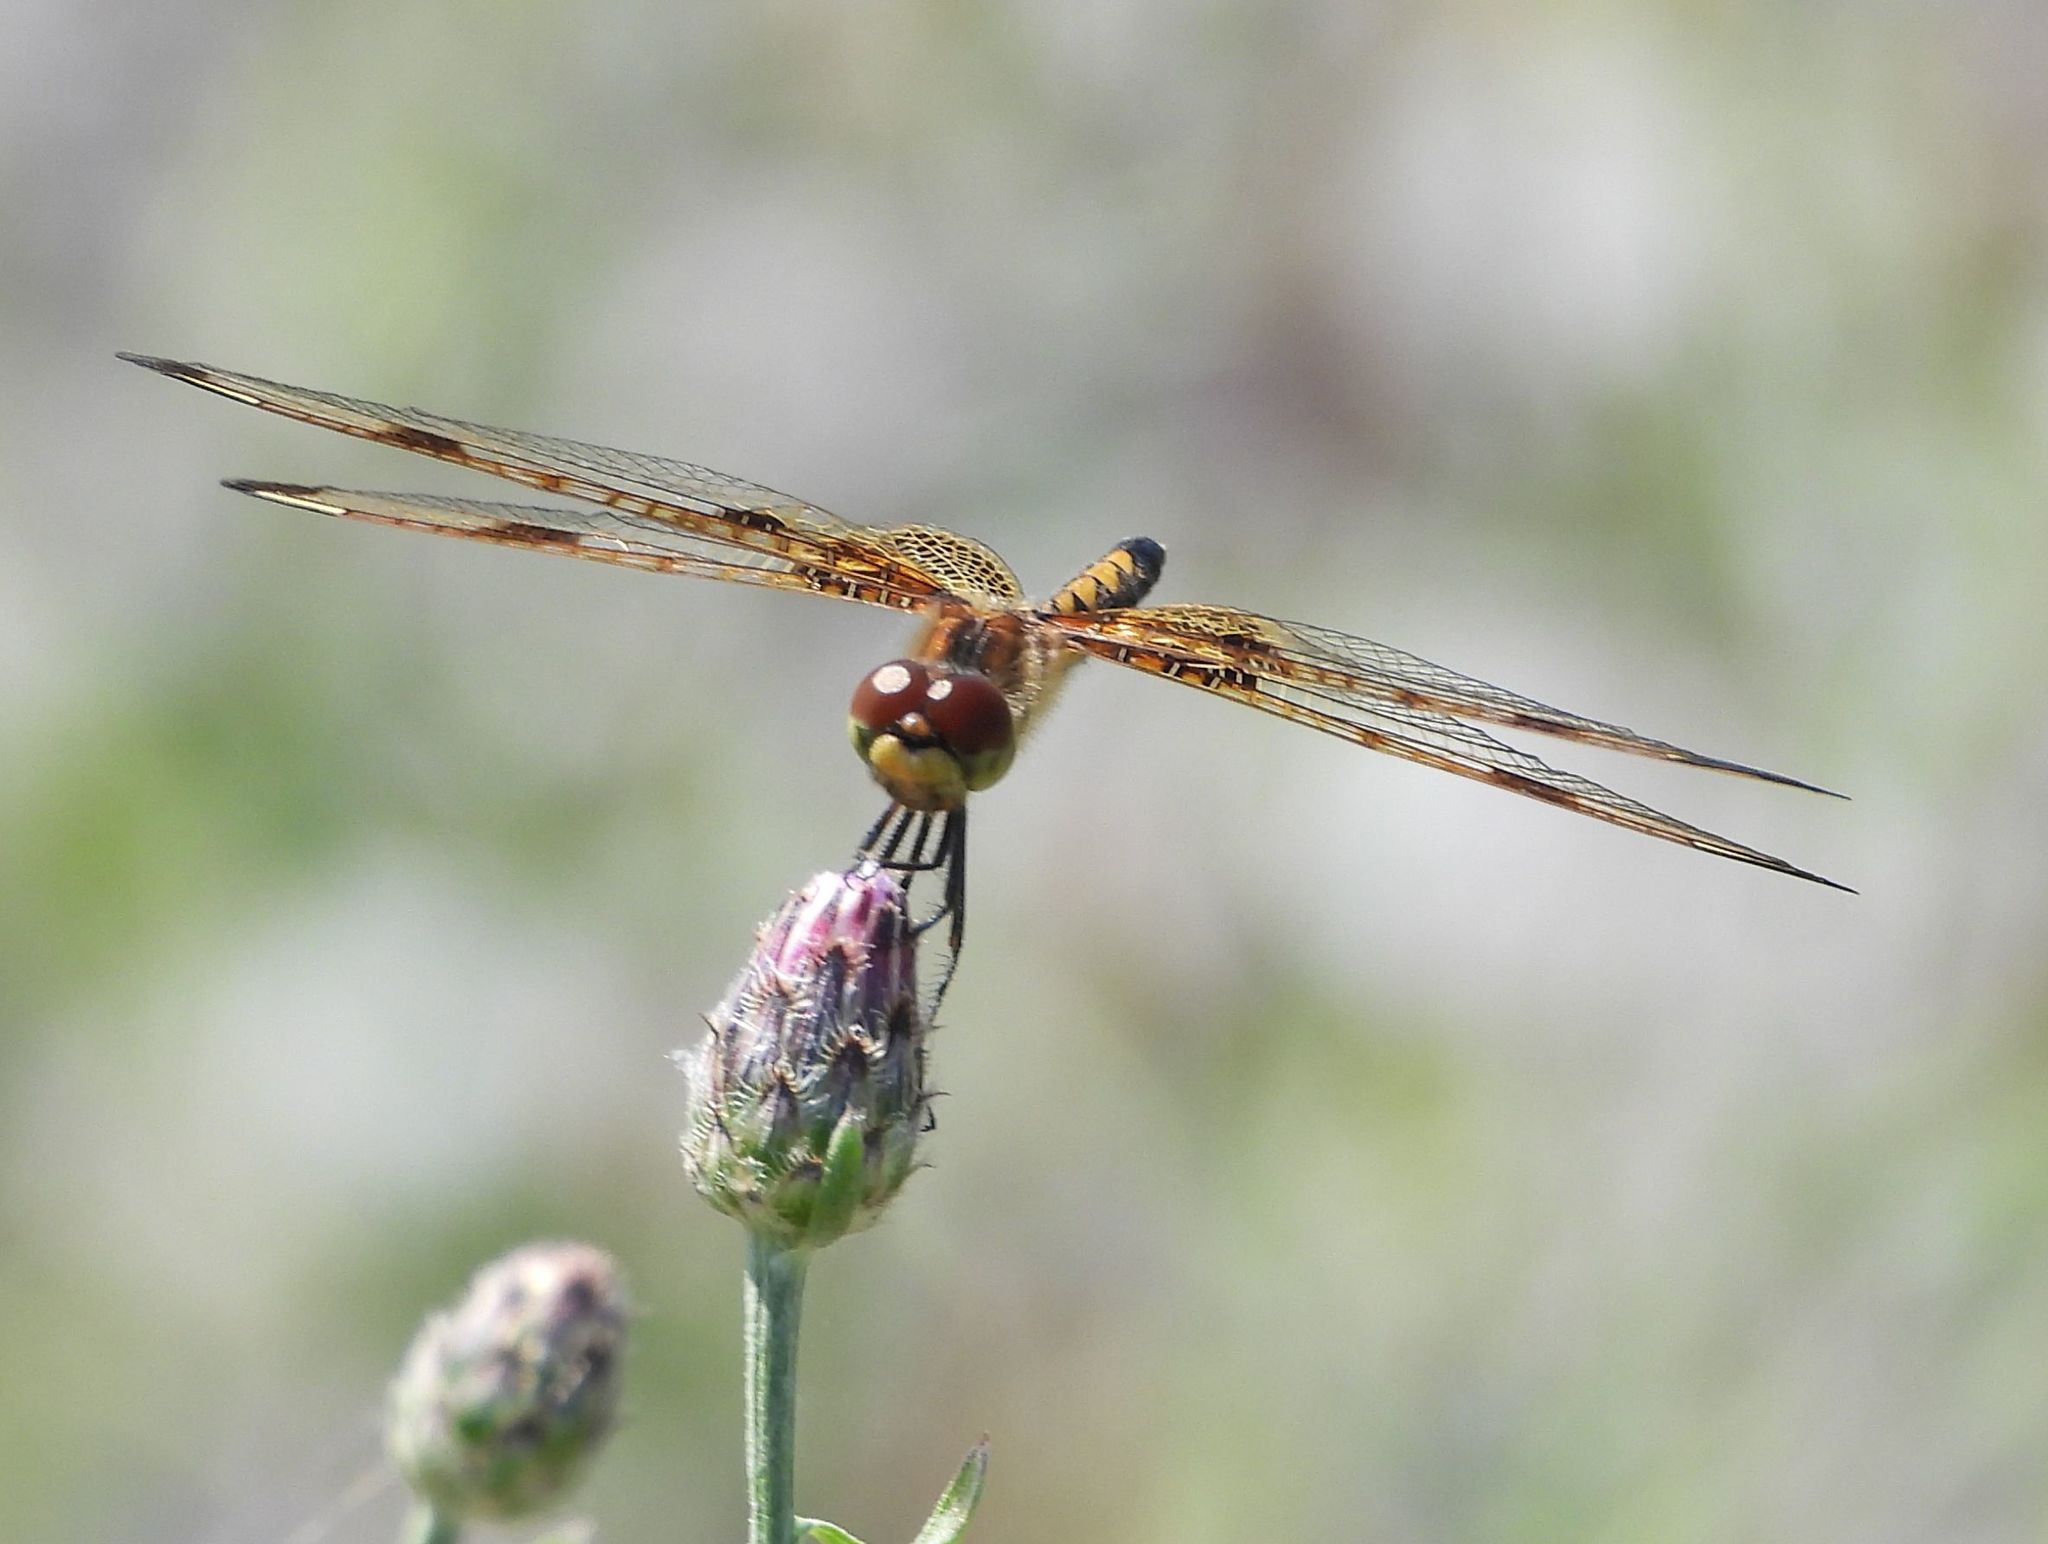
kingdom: Animalia
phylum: Arthropoda
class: Insecta
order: Odonata
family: Libellulidae
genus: Celithemis
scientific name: Celithemis elisa
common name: Calico pennant
